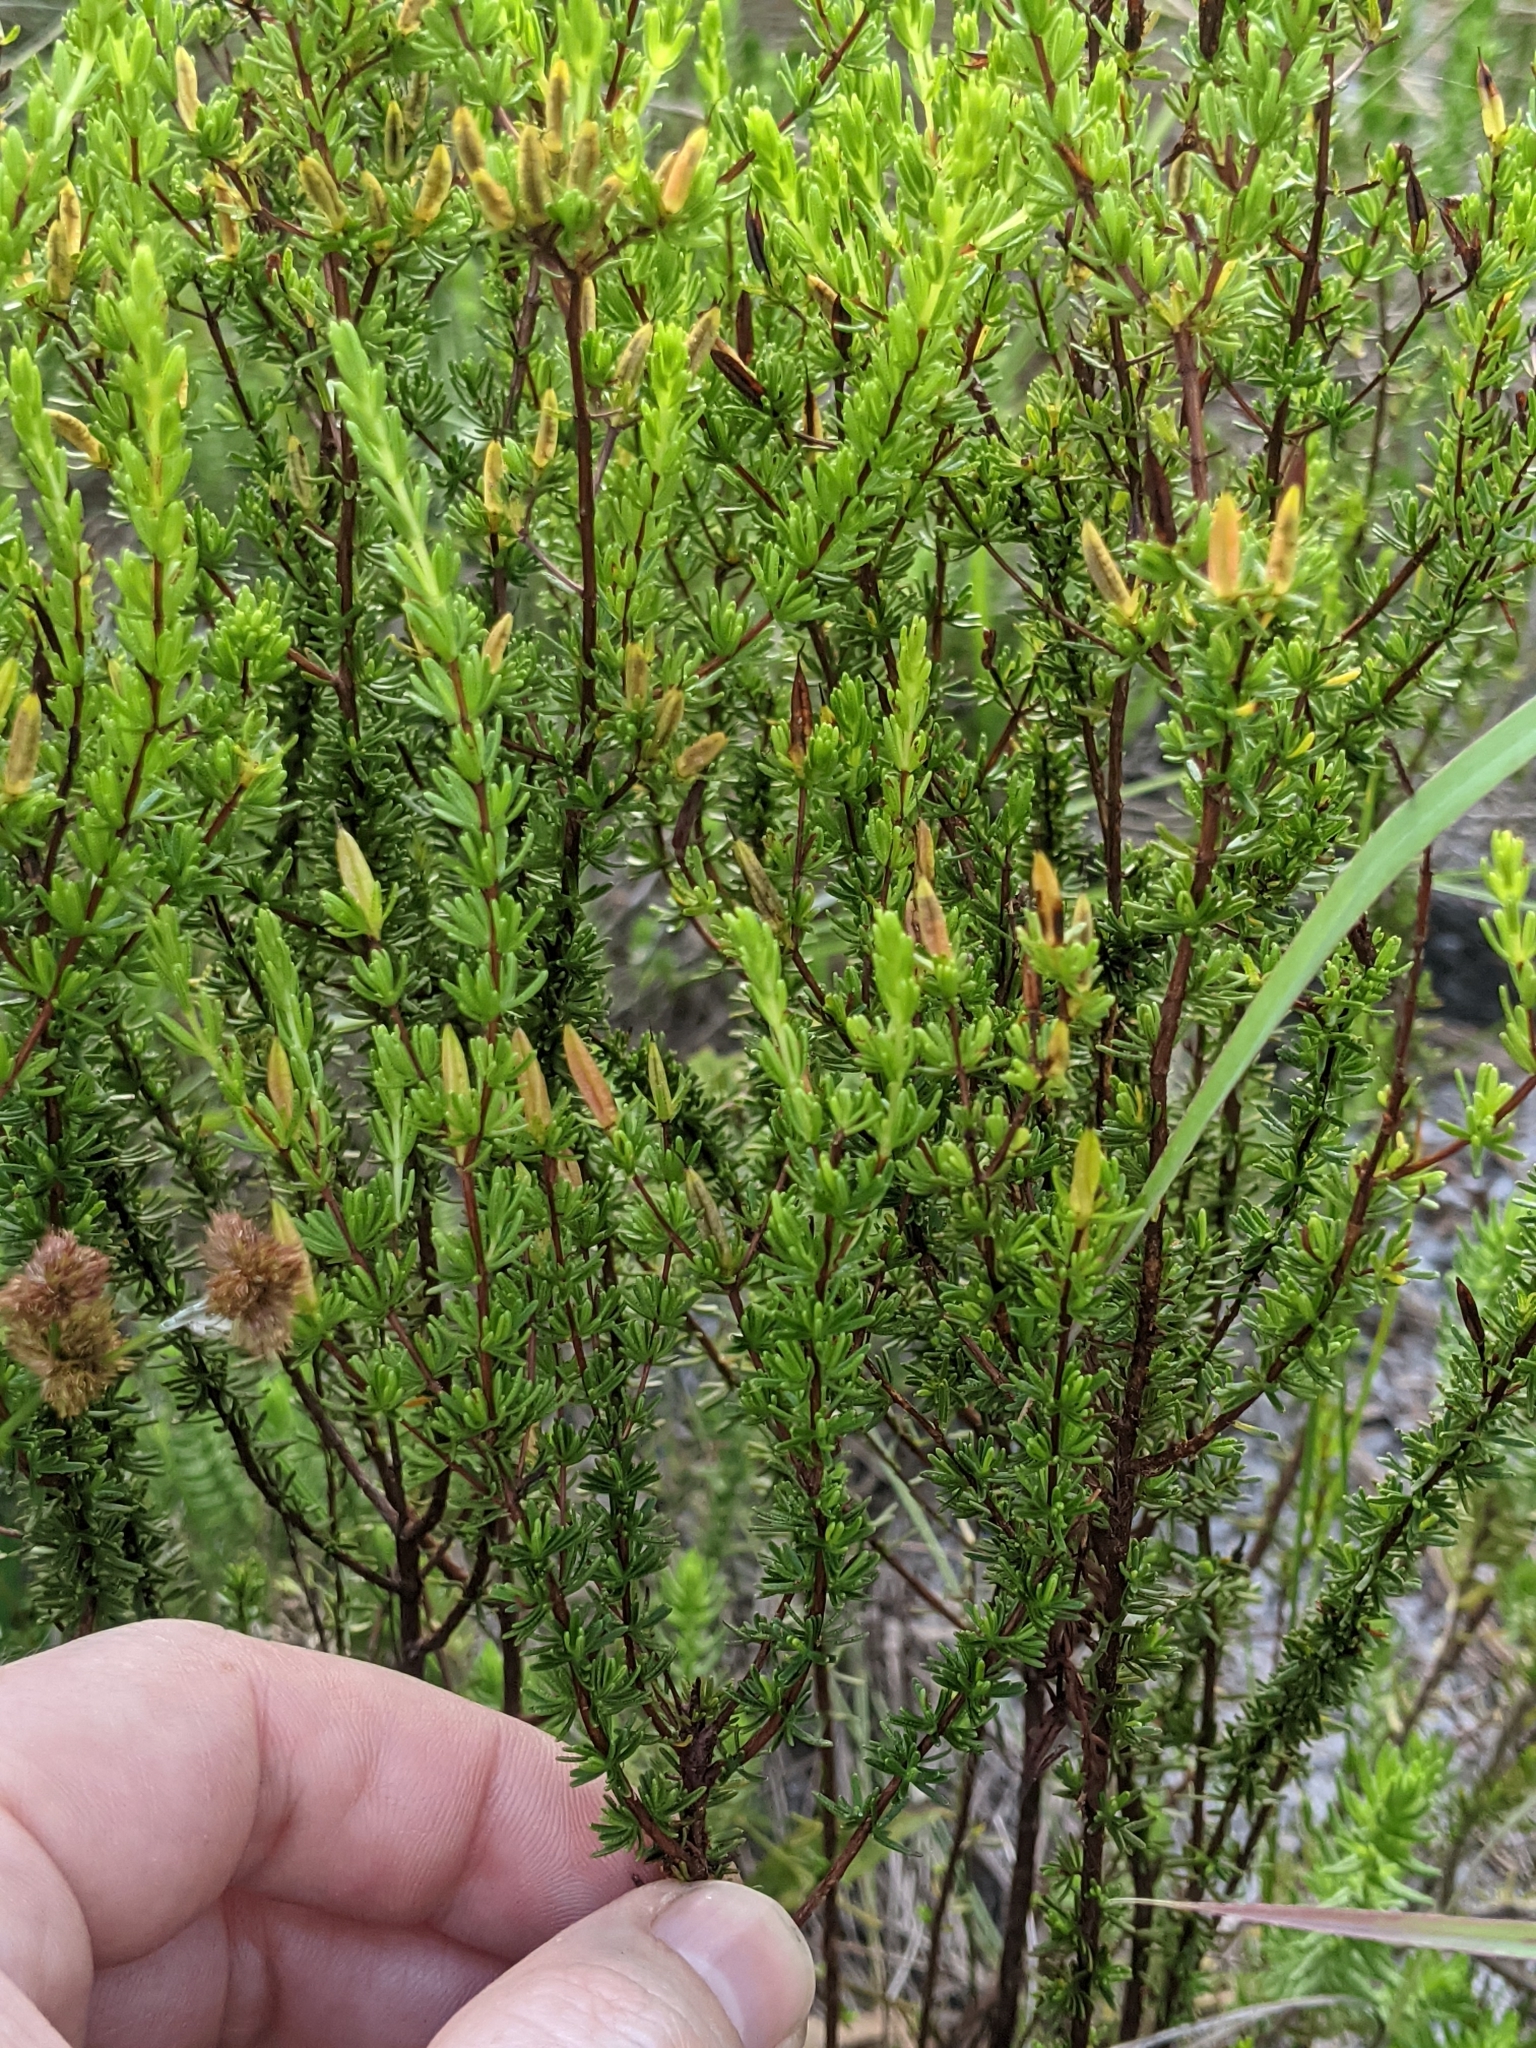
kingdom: Plantae
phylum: Tracheophyta
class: Magnoliopsida
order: Malpighiales
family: Hypericaceae
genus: Hypericum
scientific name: Hypericum tenuifolium
